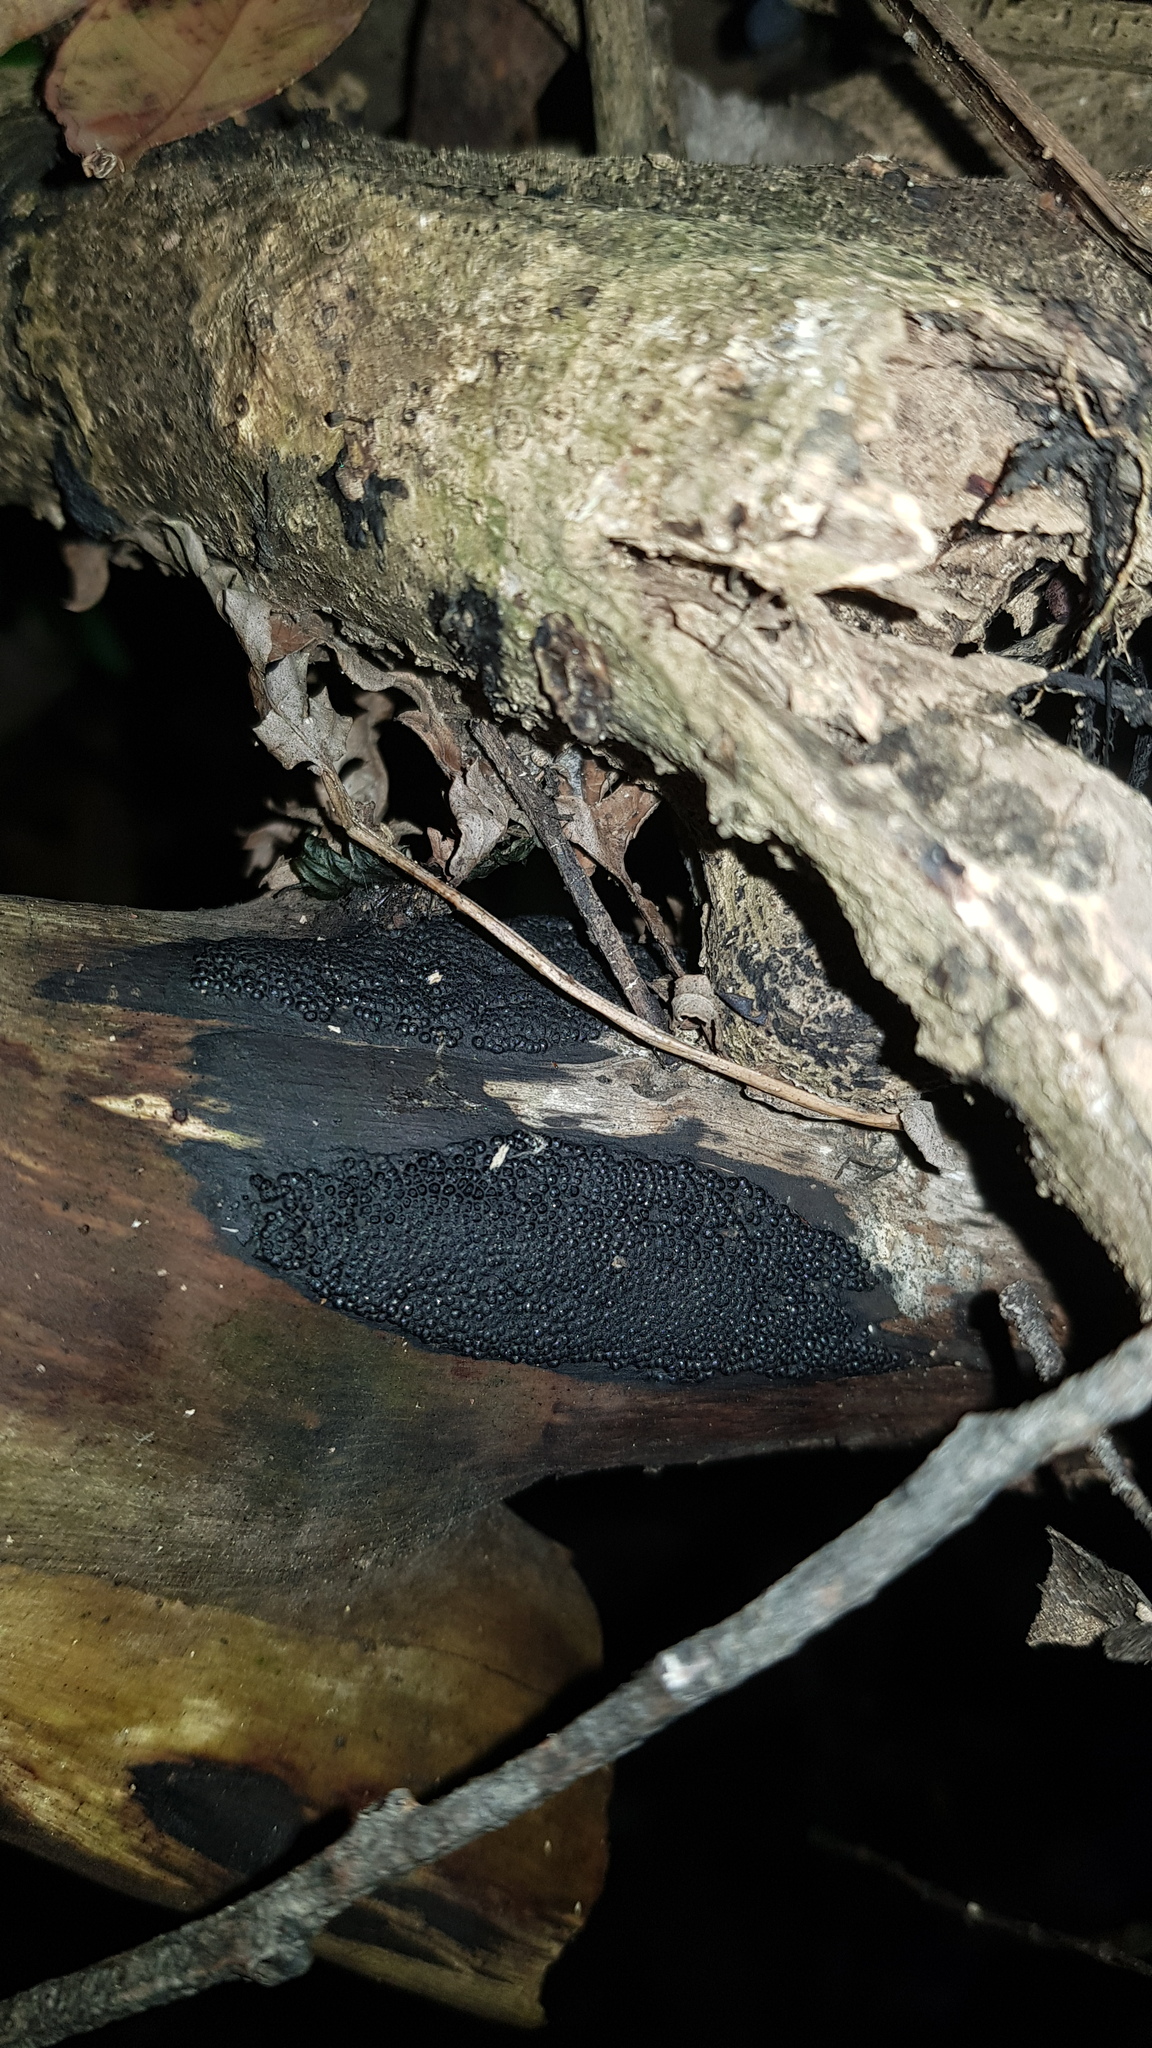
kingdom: Fungi
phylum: Ascomycota
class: Sordariomycetes
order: Xylariales
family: Hypoxylaceae
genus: Annulohypoxylon
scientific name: Annulohypoxylon bovei
